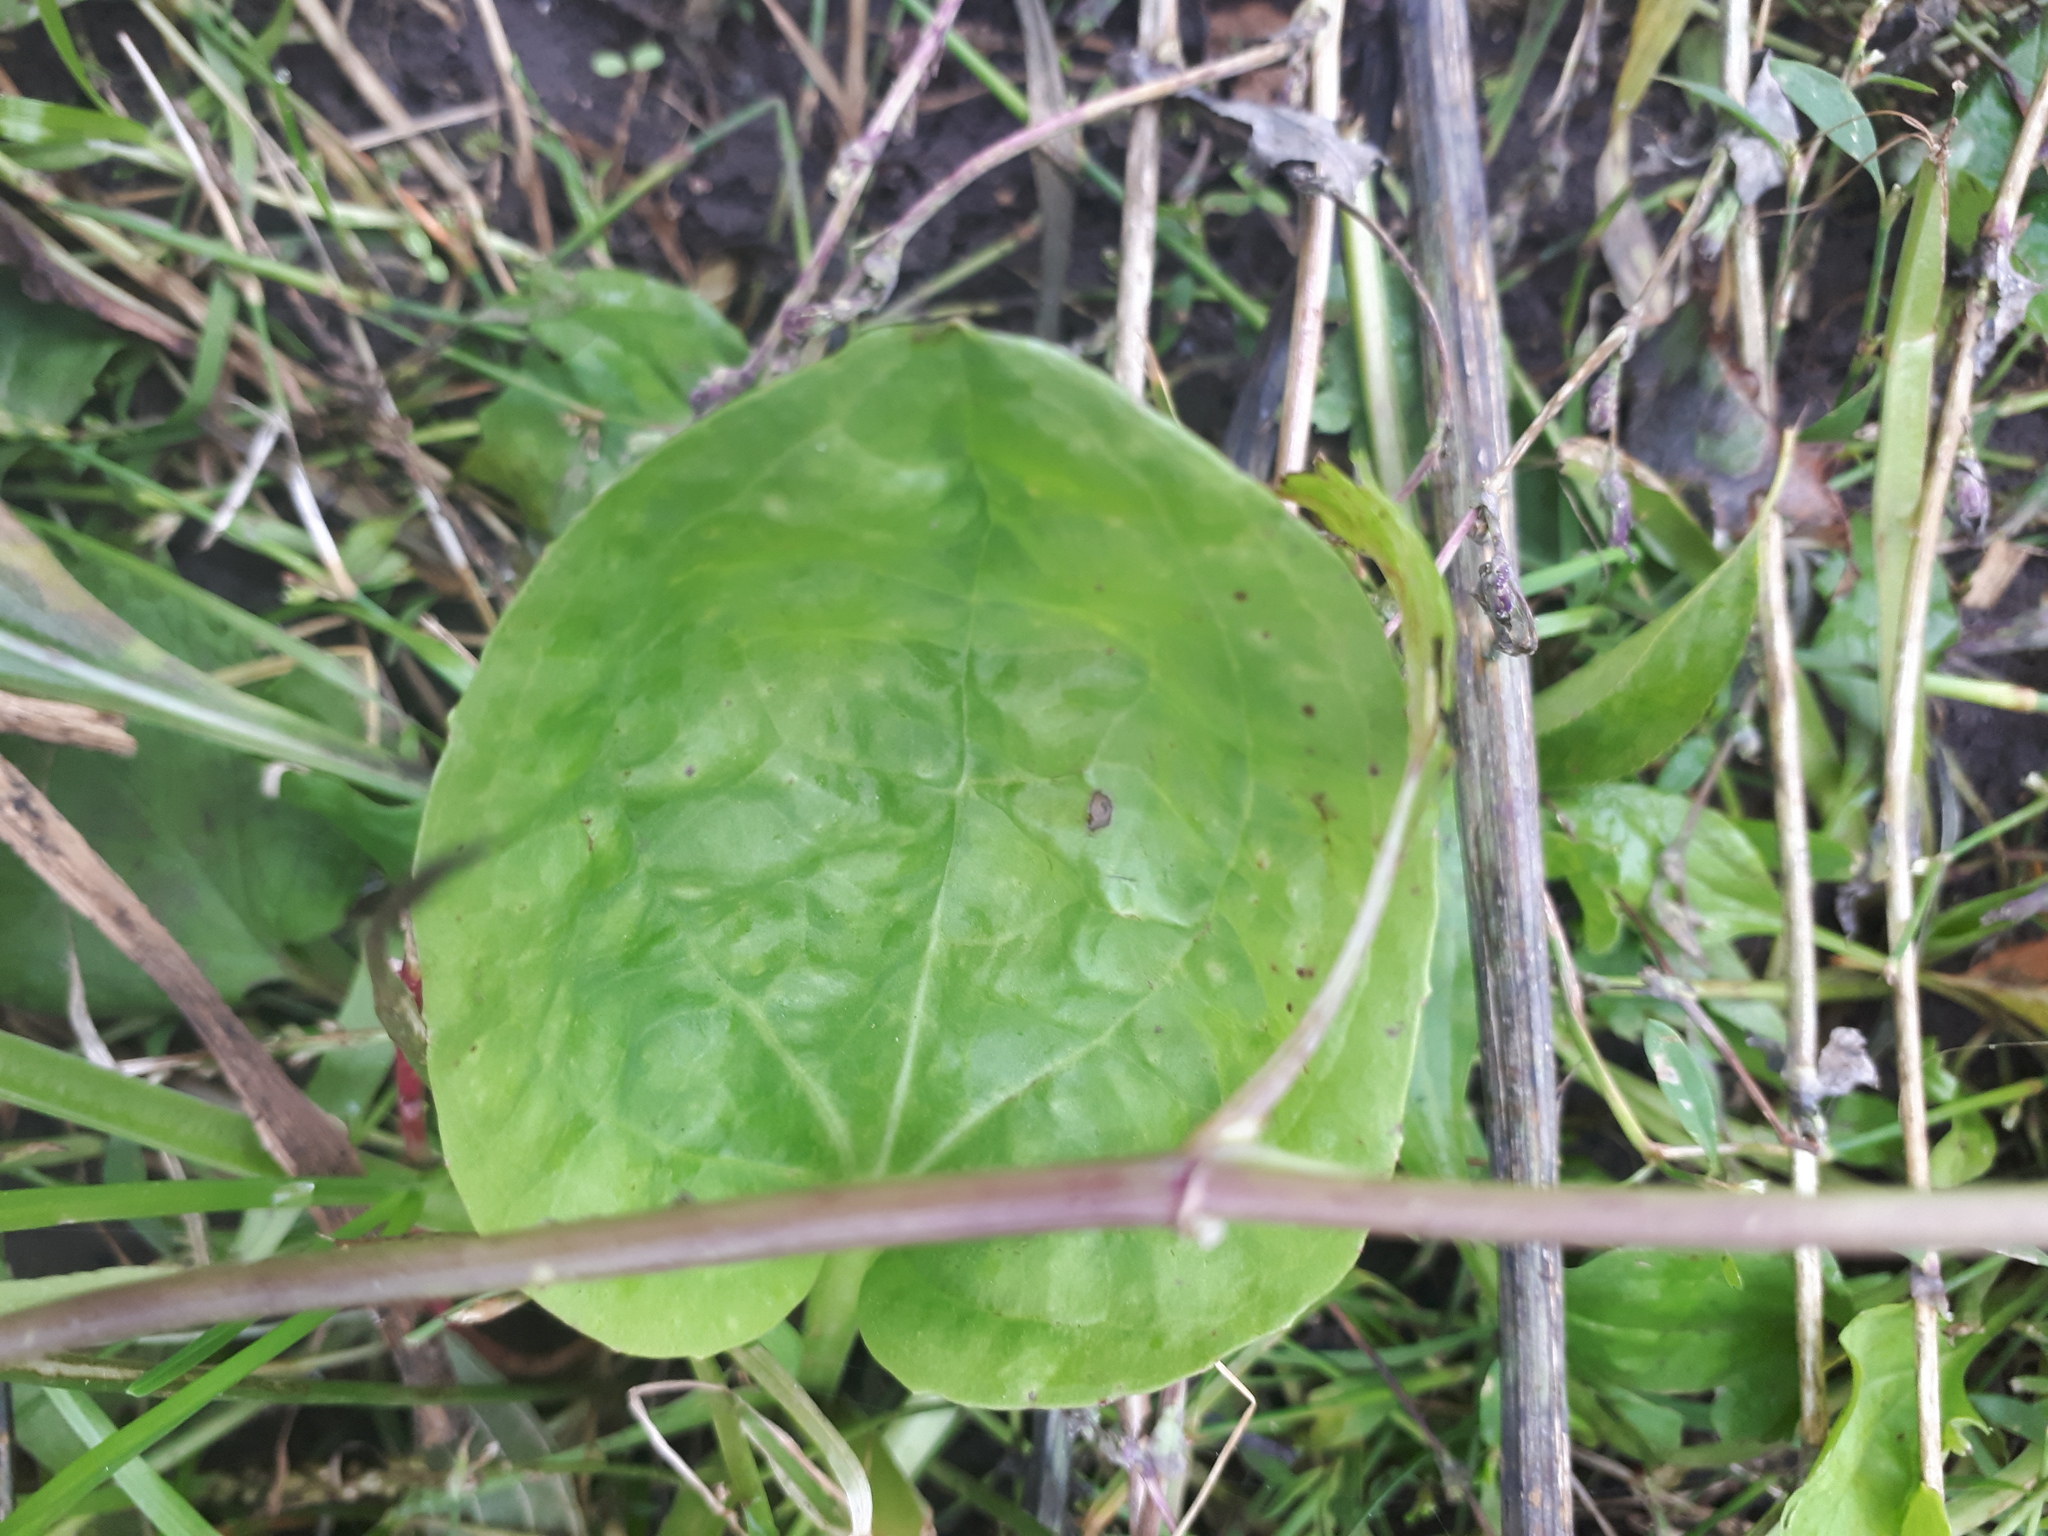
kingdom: Plantae
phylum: Tracheophyta
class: Magnoliopsida
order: Lamiales
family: Plantaginaceae
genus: Plantago
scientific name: Plantago major
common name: Common plantain
